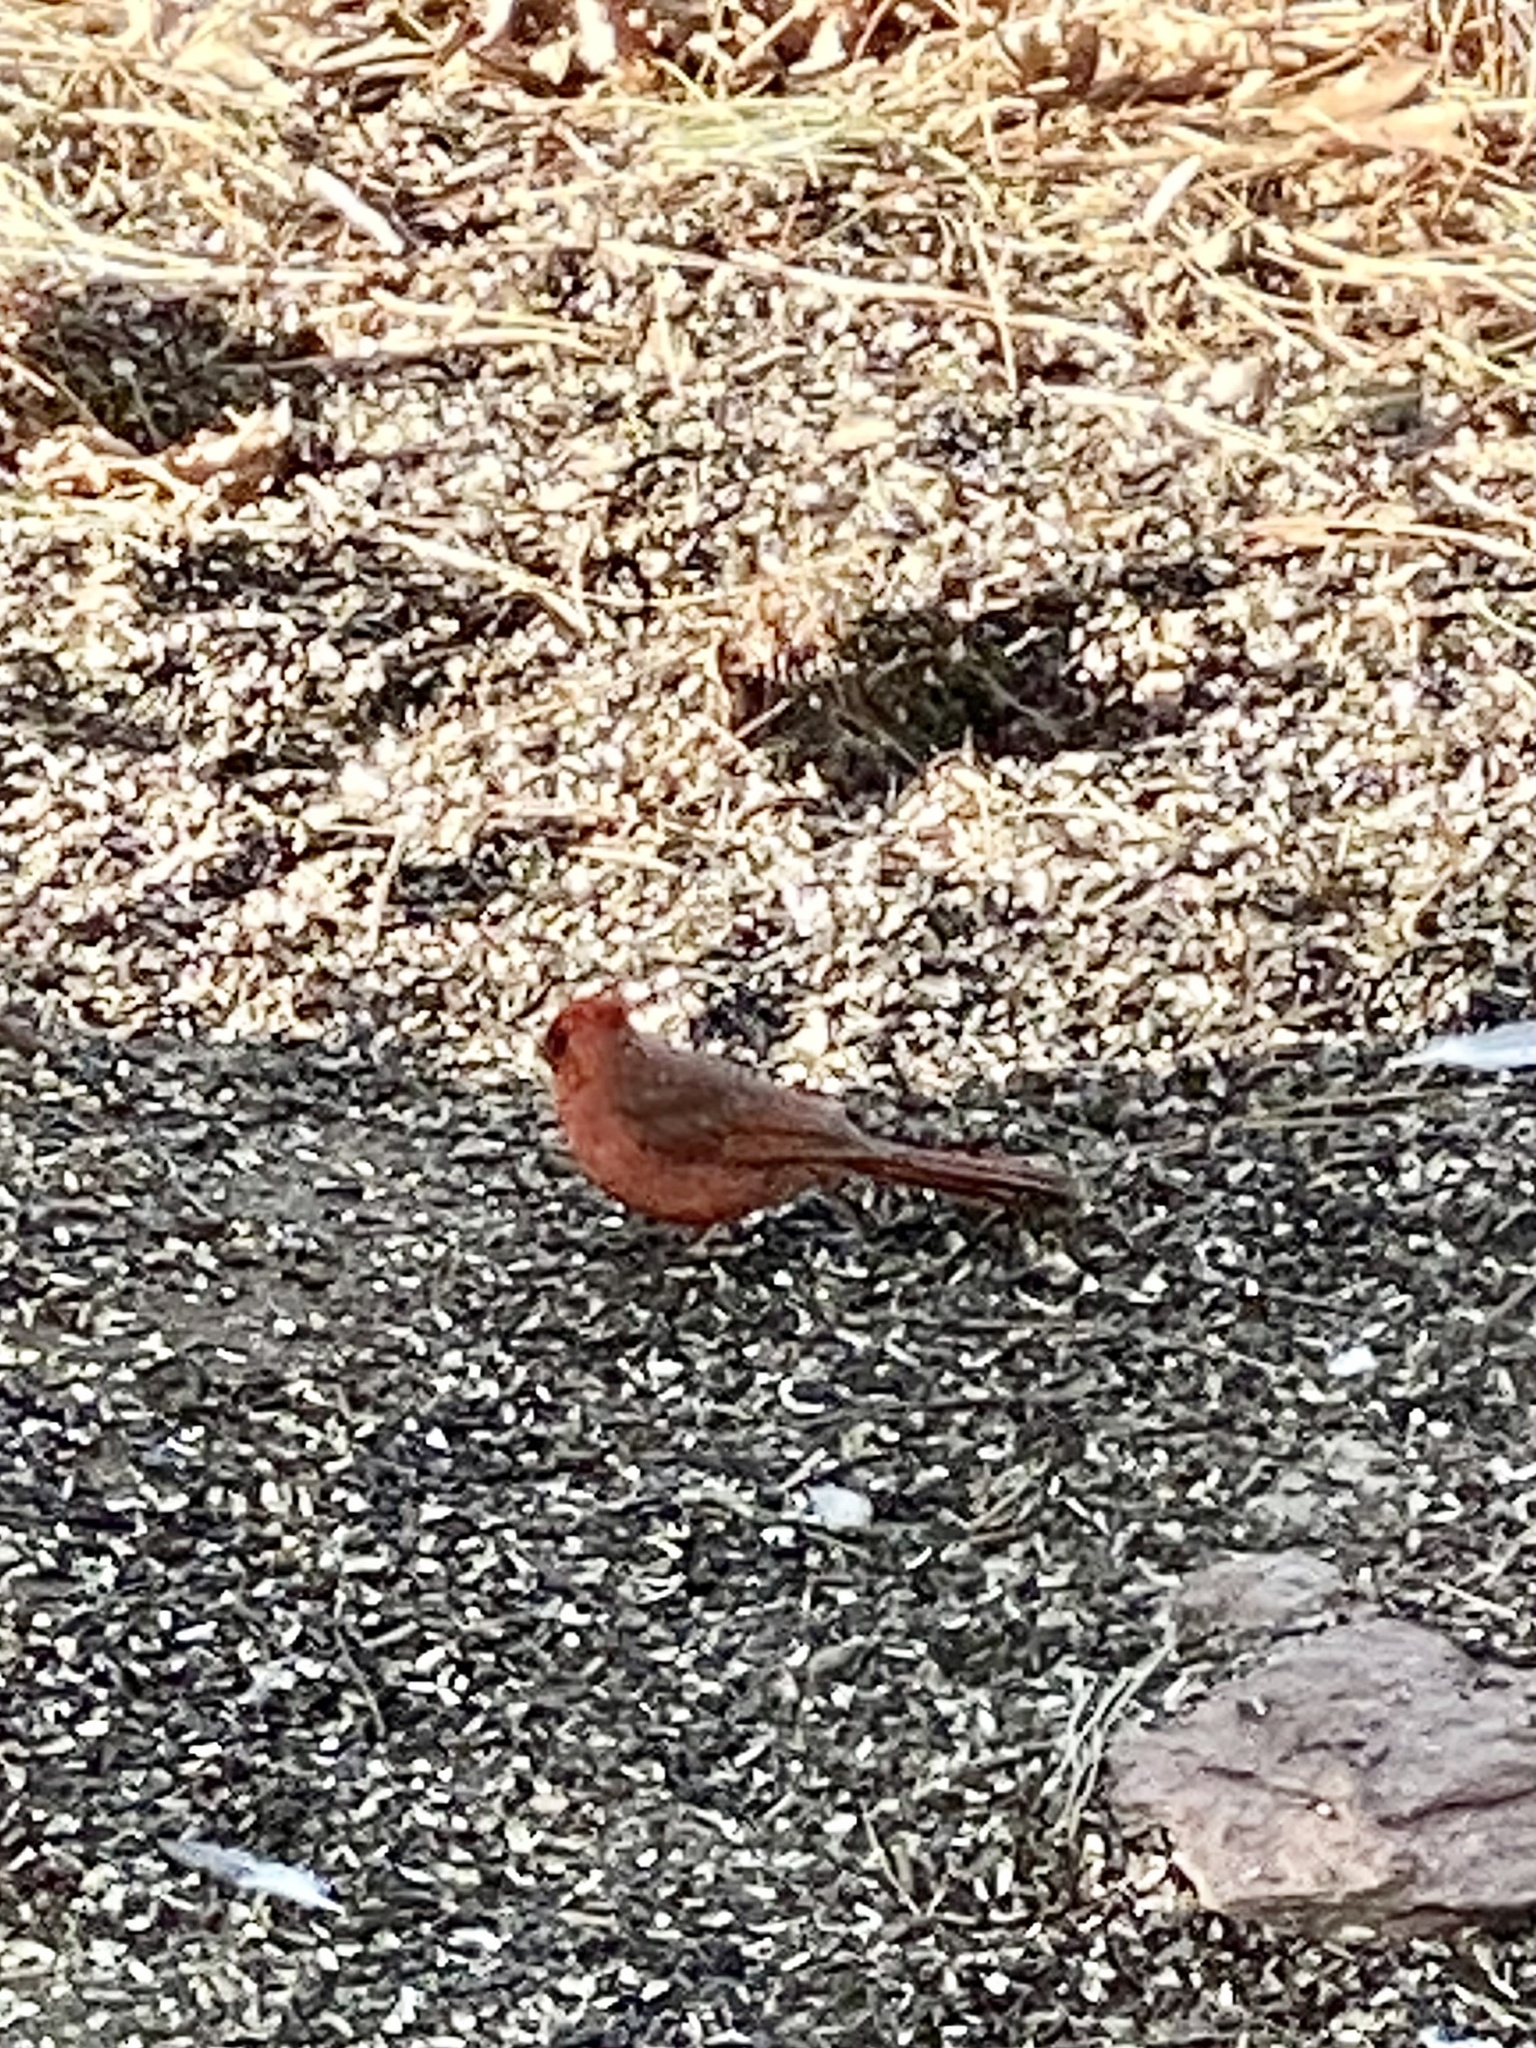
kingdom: Animalia
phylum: Chordata
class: Aves
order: Passeriformes
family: Cardinalidae
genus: Cardinalis
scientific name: Cardinalis cardinalis
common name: Northern cardinal
